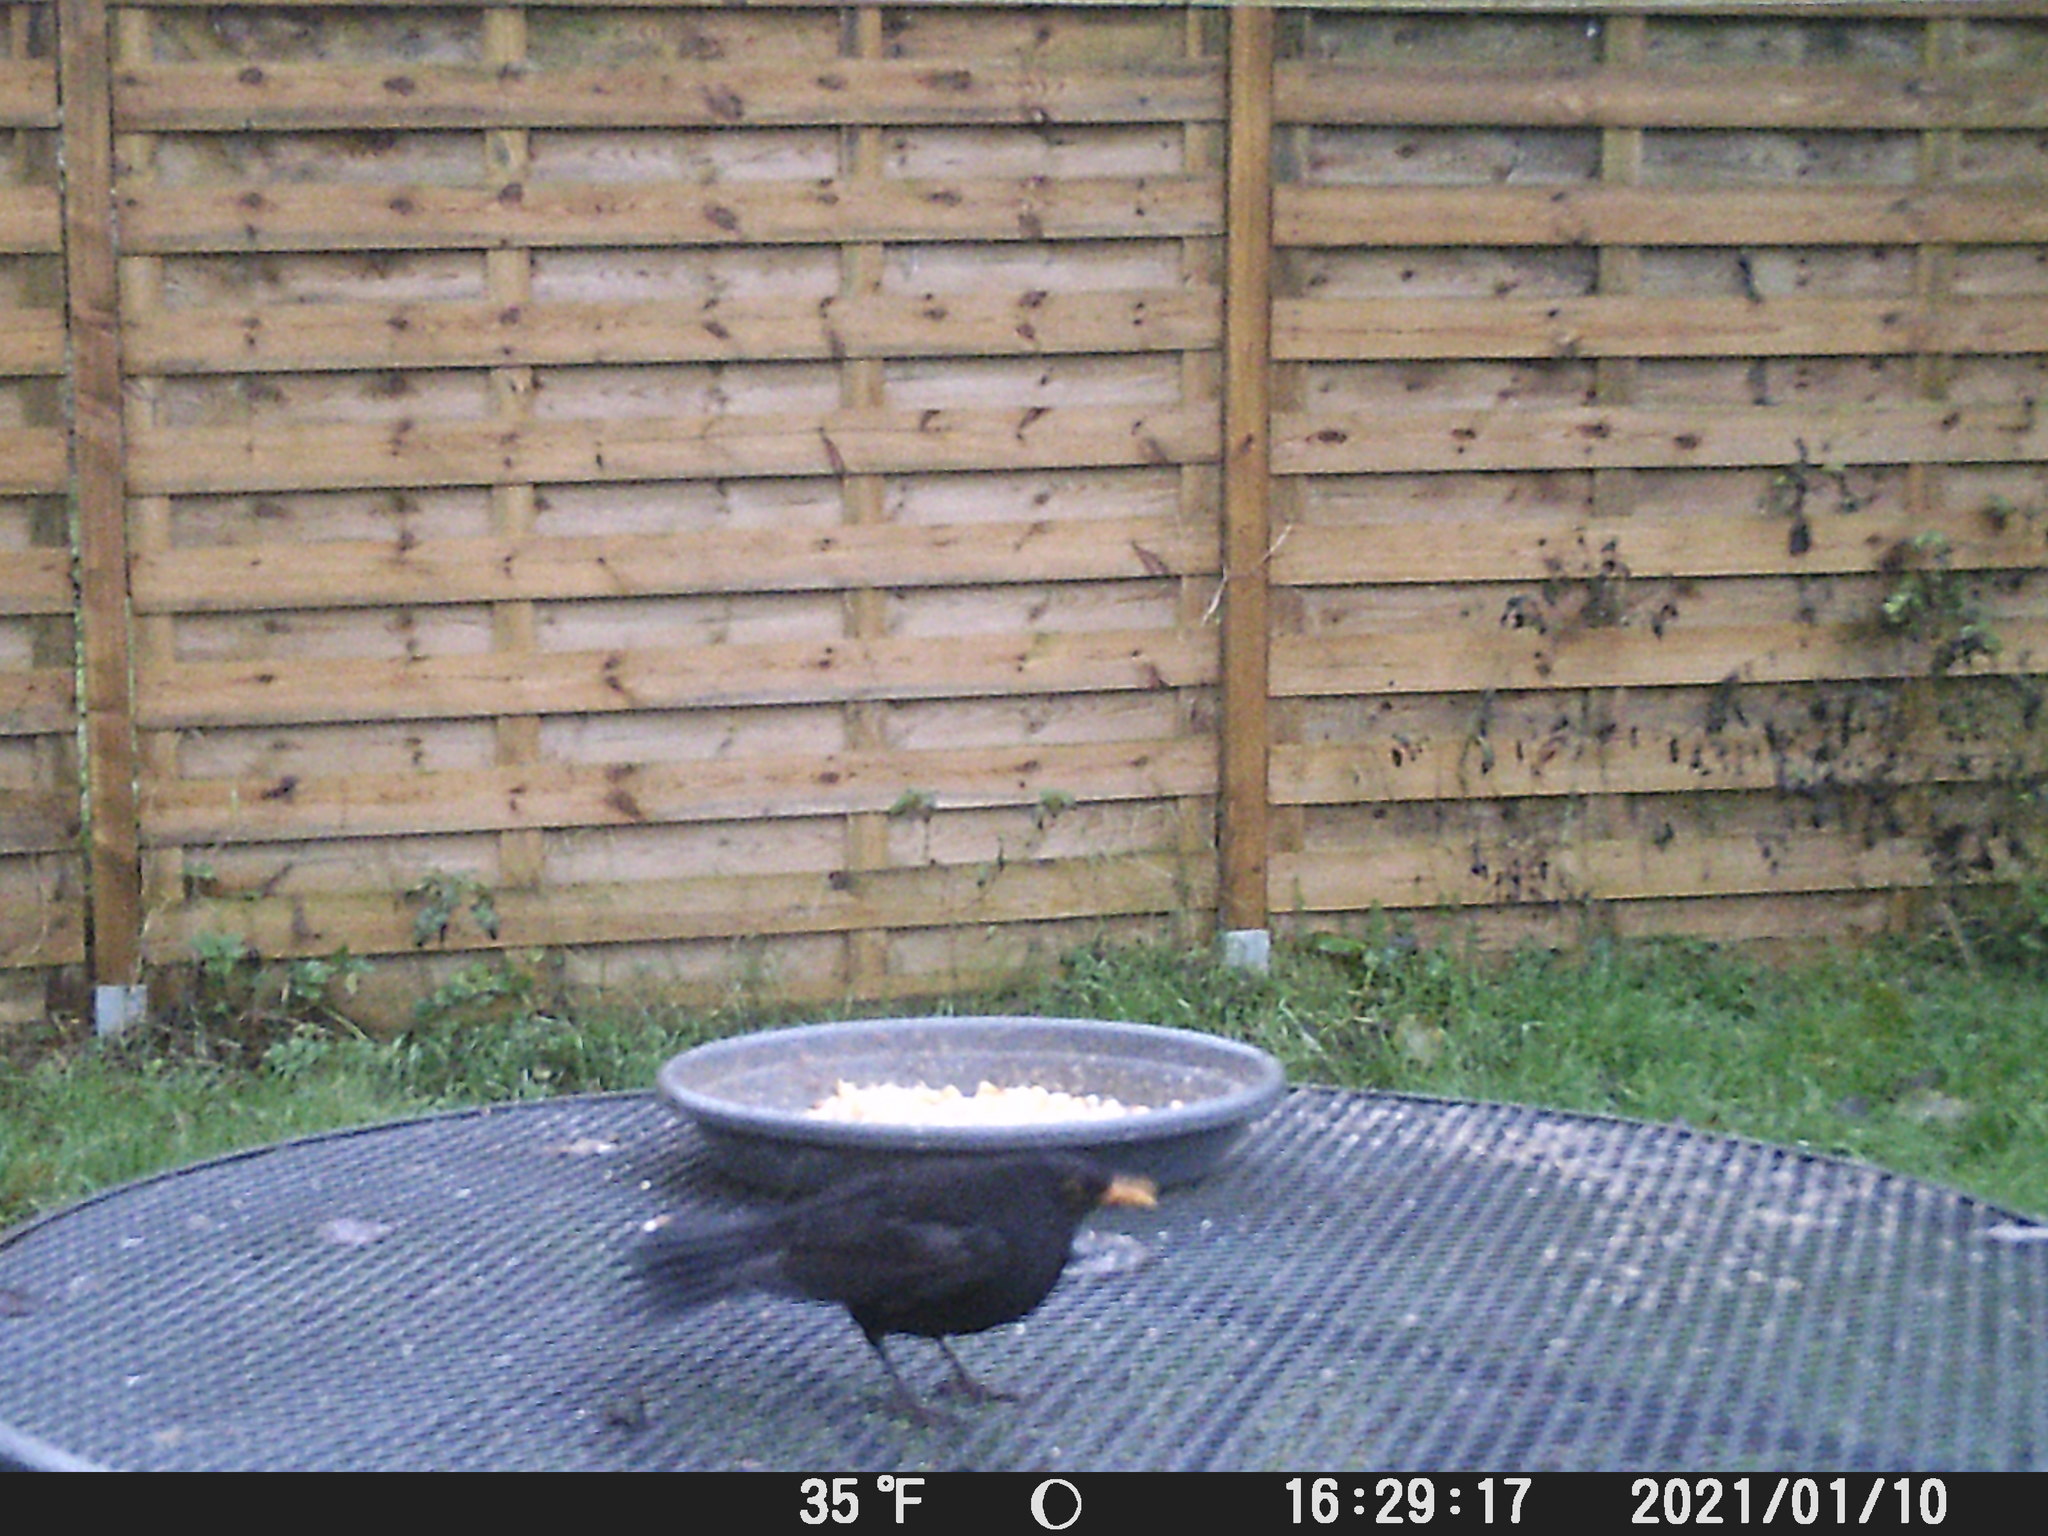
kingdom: Animalia
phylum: Chordata
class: Aves
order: Passeriformes
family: Turdidae
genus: Turdus
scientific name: Turdus merula
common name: Common blackbird
